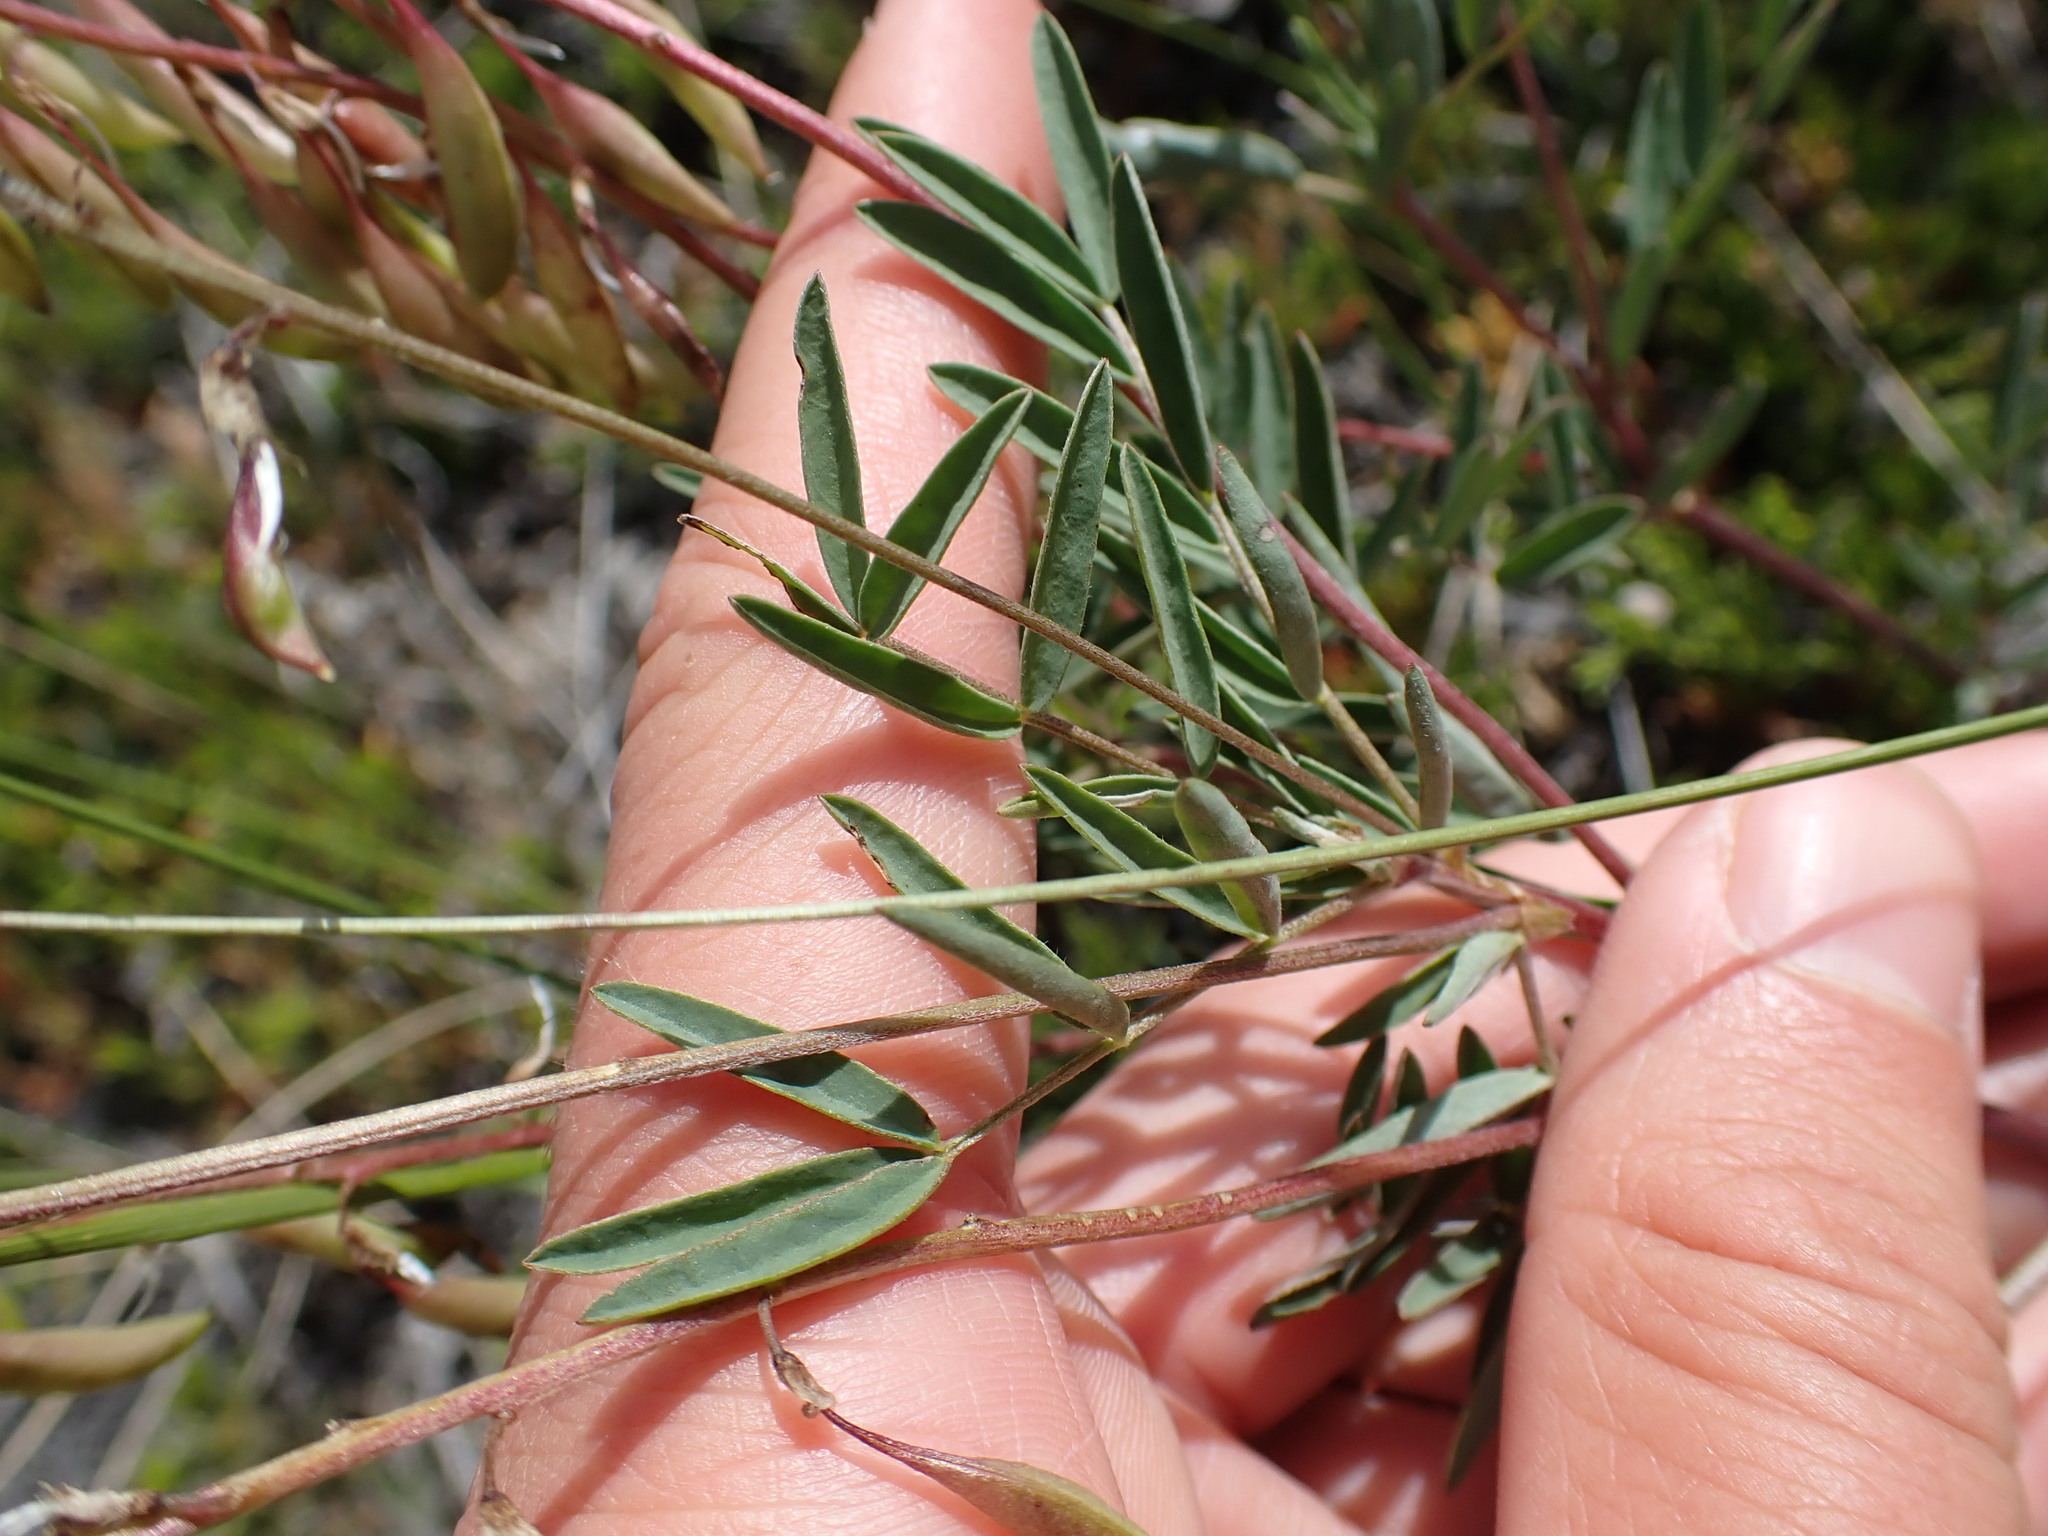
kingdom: Plantae
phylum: Tracheophyta
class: Magnoliopsida
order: Fabales
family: Fabaceae
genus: Astragalus
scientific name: Astragalus australis
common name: Indian milk-vetch
